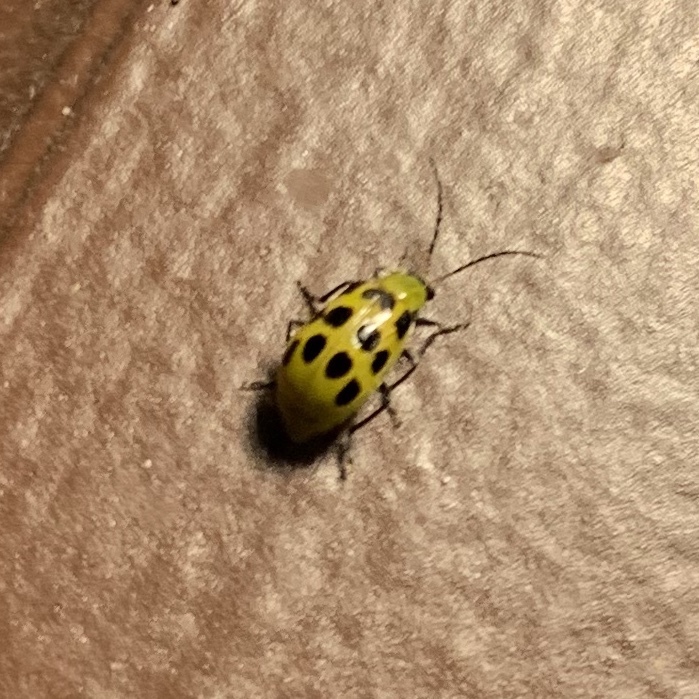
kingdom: Animalia
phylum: Arthropoda
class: Insecta
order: Coleoptera
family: Chrysomelidae
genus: Diabrotica
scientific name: Diabrotica undecimpunctata
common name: Spotted cucumber beetle
